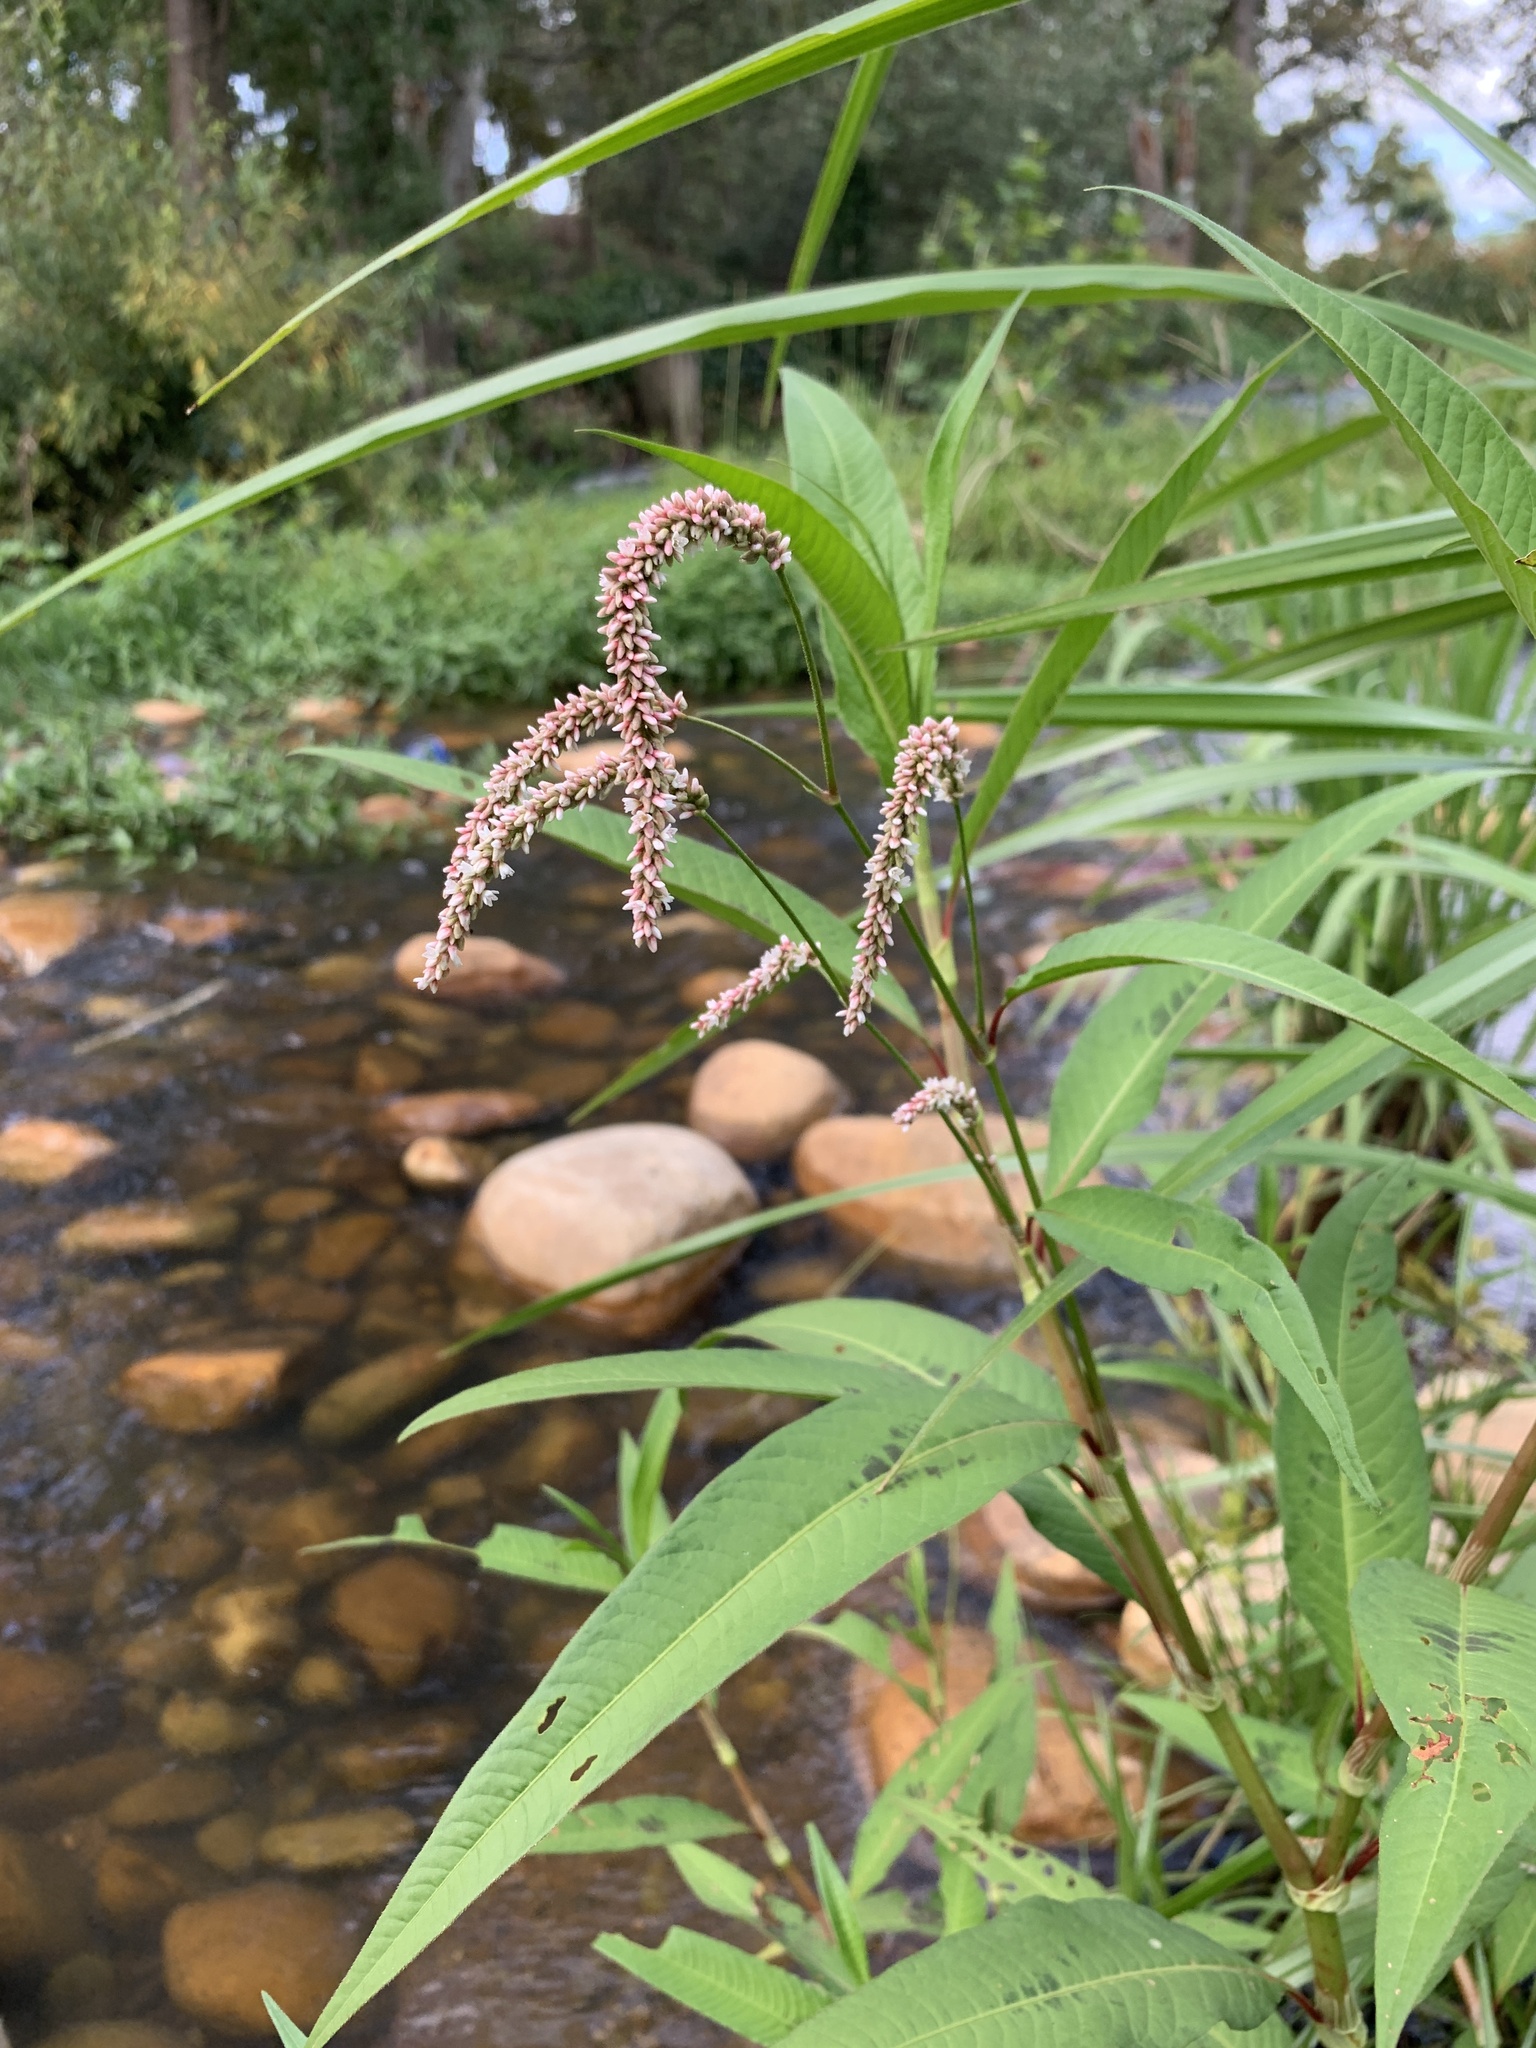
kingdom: Plantae
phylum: Tracheophyta
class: Magnoliopsida
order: Caryophyllales
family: Polygonaceae
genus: Persicaria
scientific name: Persicaria lapathifolia
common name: Curlytop knotweed
